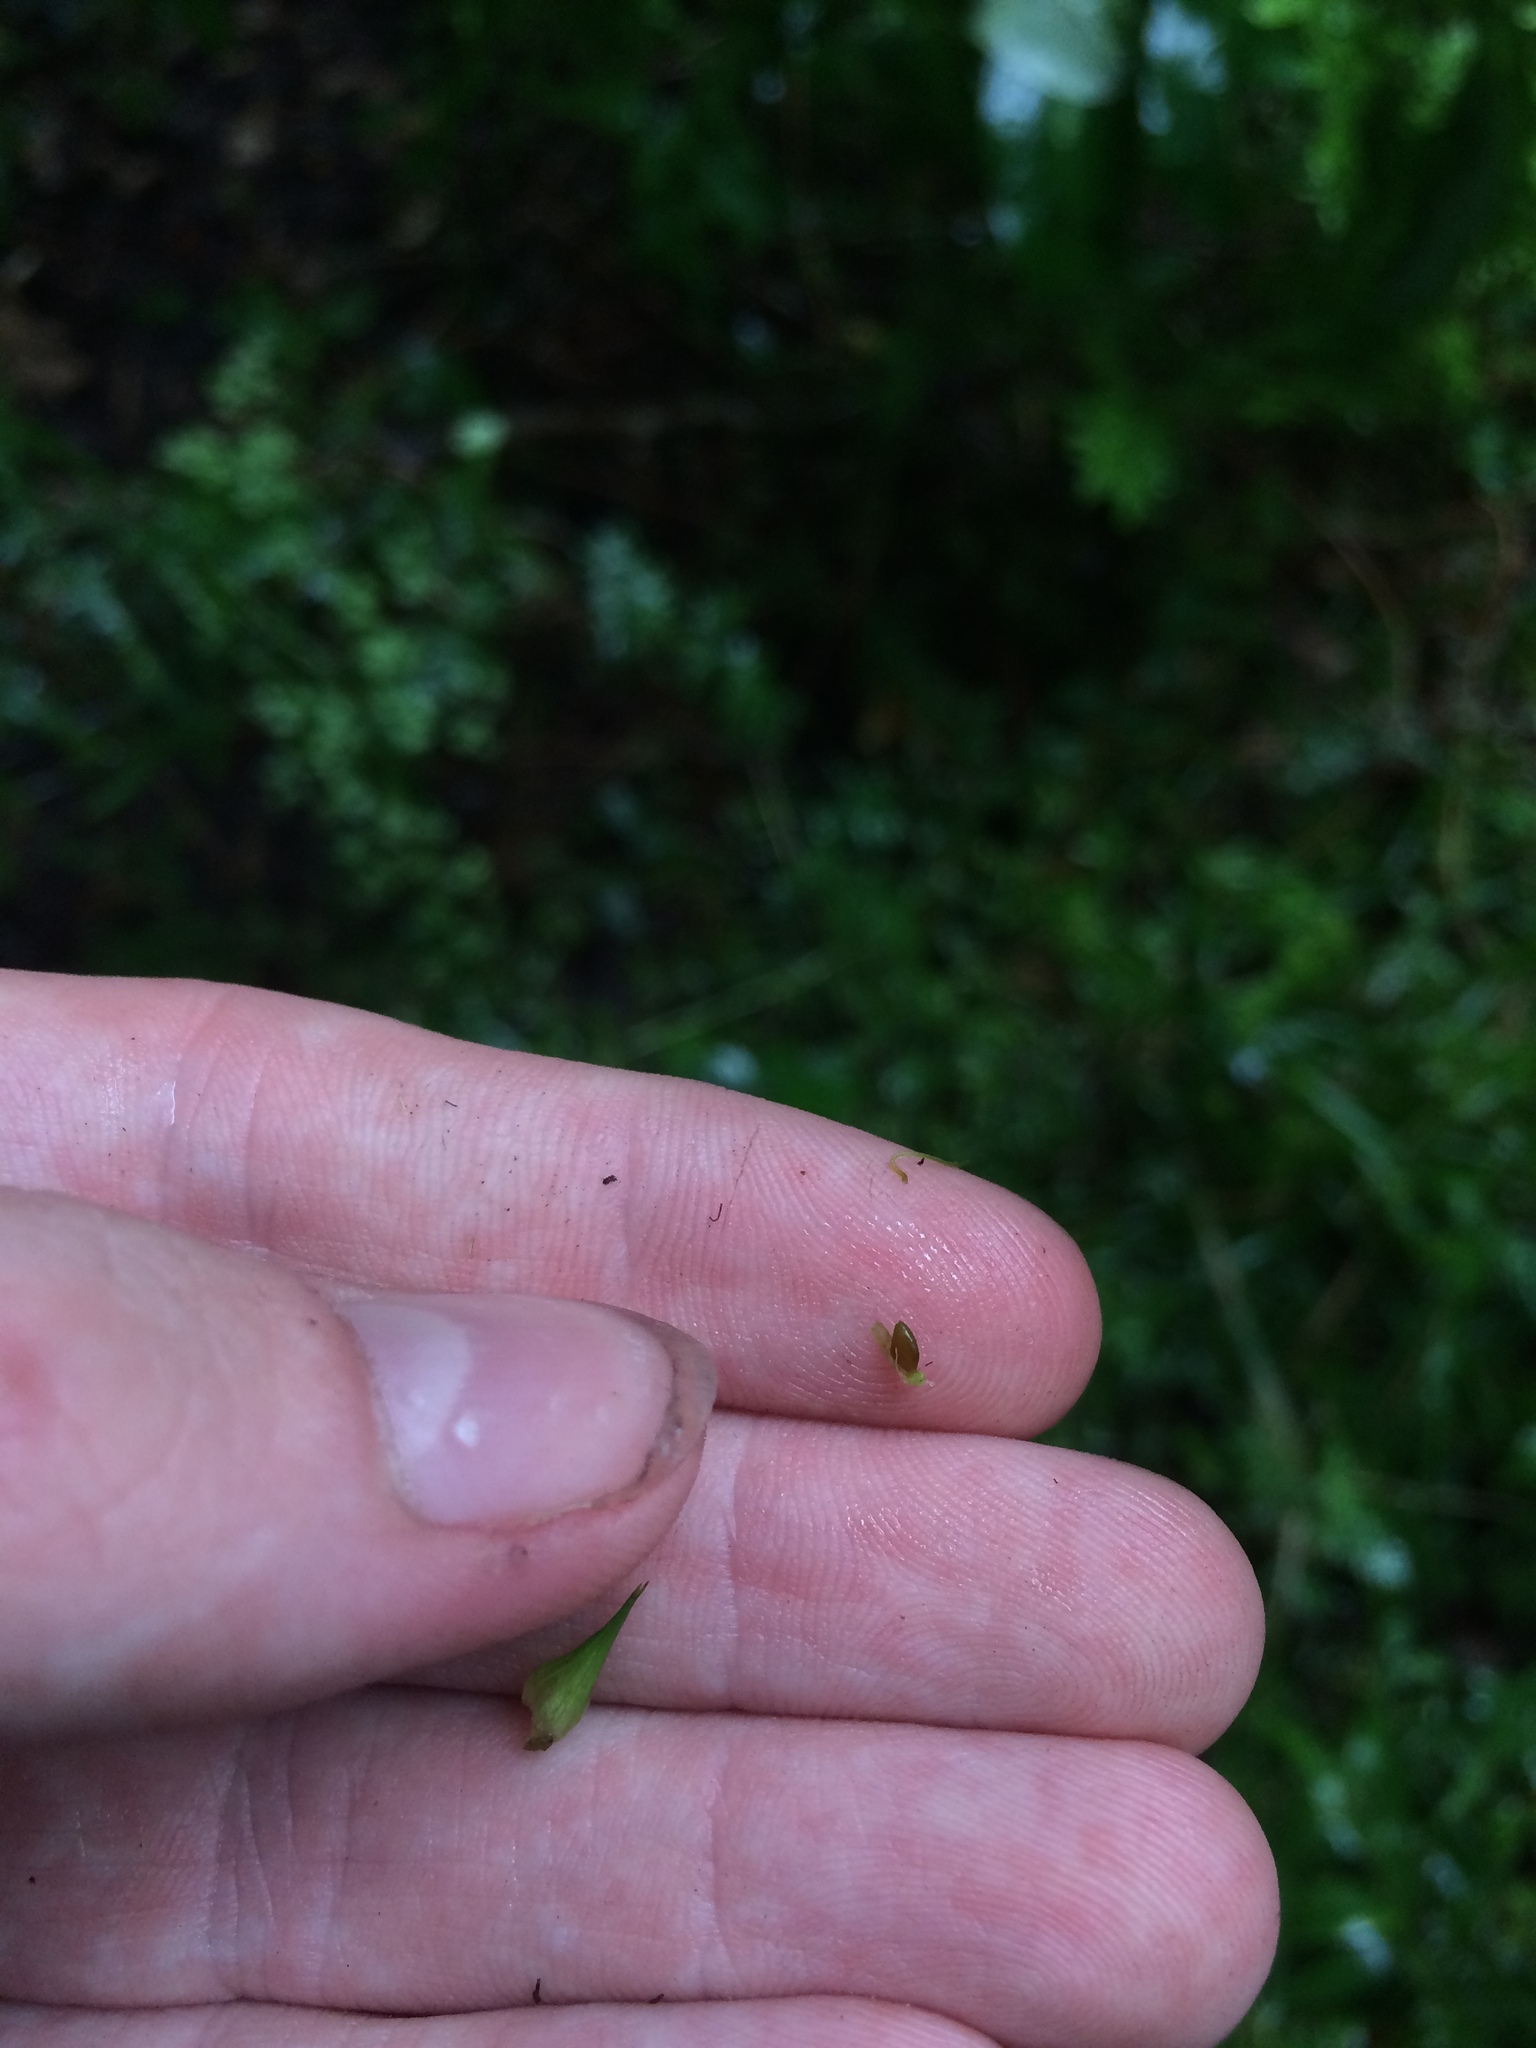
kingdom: Plantae
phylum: Tracheophyta
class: Liliopsida
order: Poales
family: Cyperaceae
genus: Carex
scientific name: Carex louisianica
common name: Louisiana sedge
